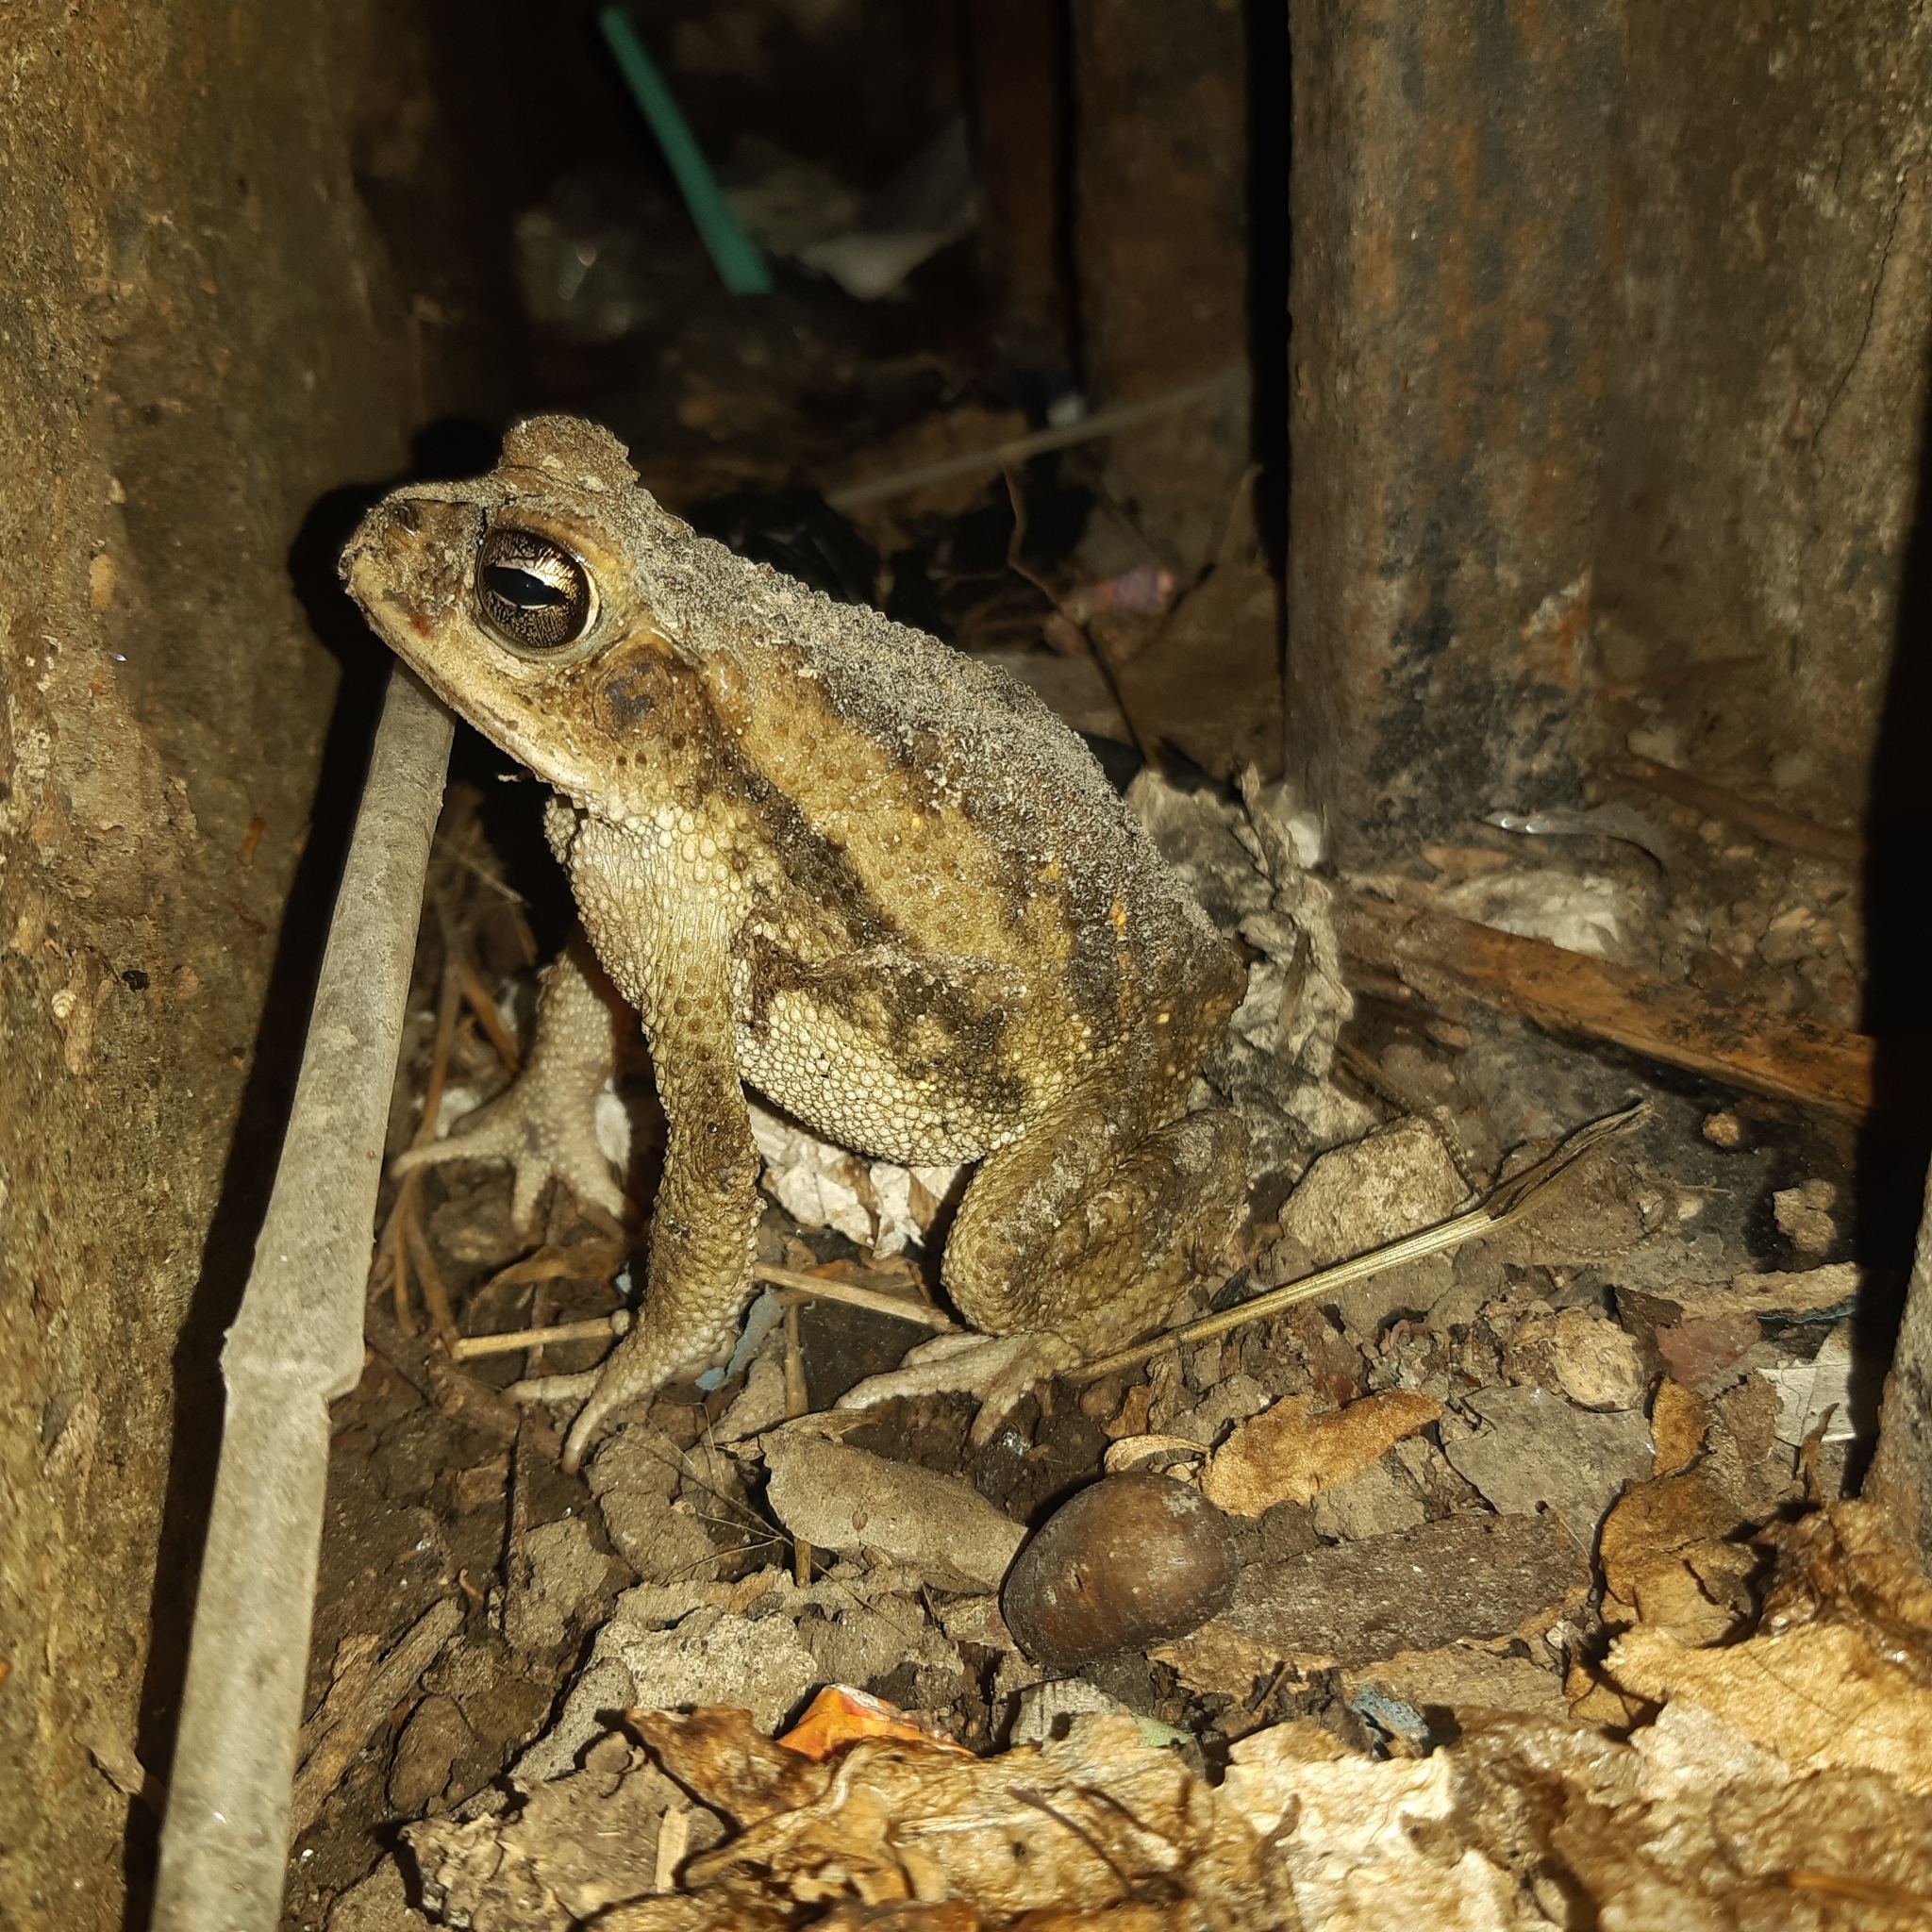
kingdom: Animalia
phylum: Chordata
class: Amphibia
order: Anura
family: Bufonidae
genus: Incilius
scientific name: Incilius luetkenii
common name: Yellow toad
